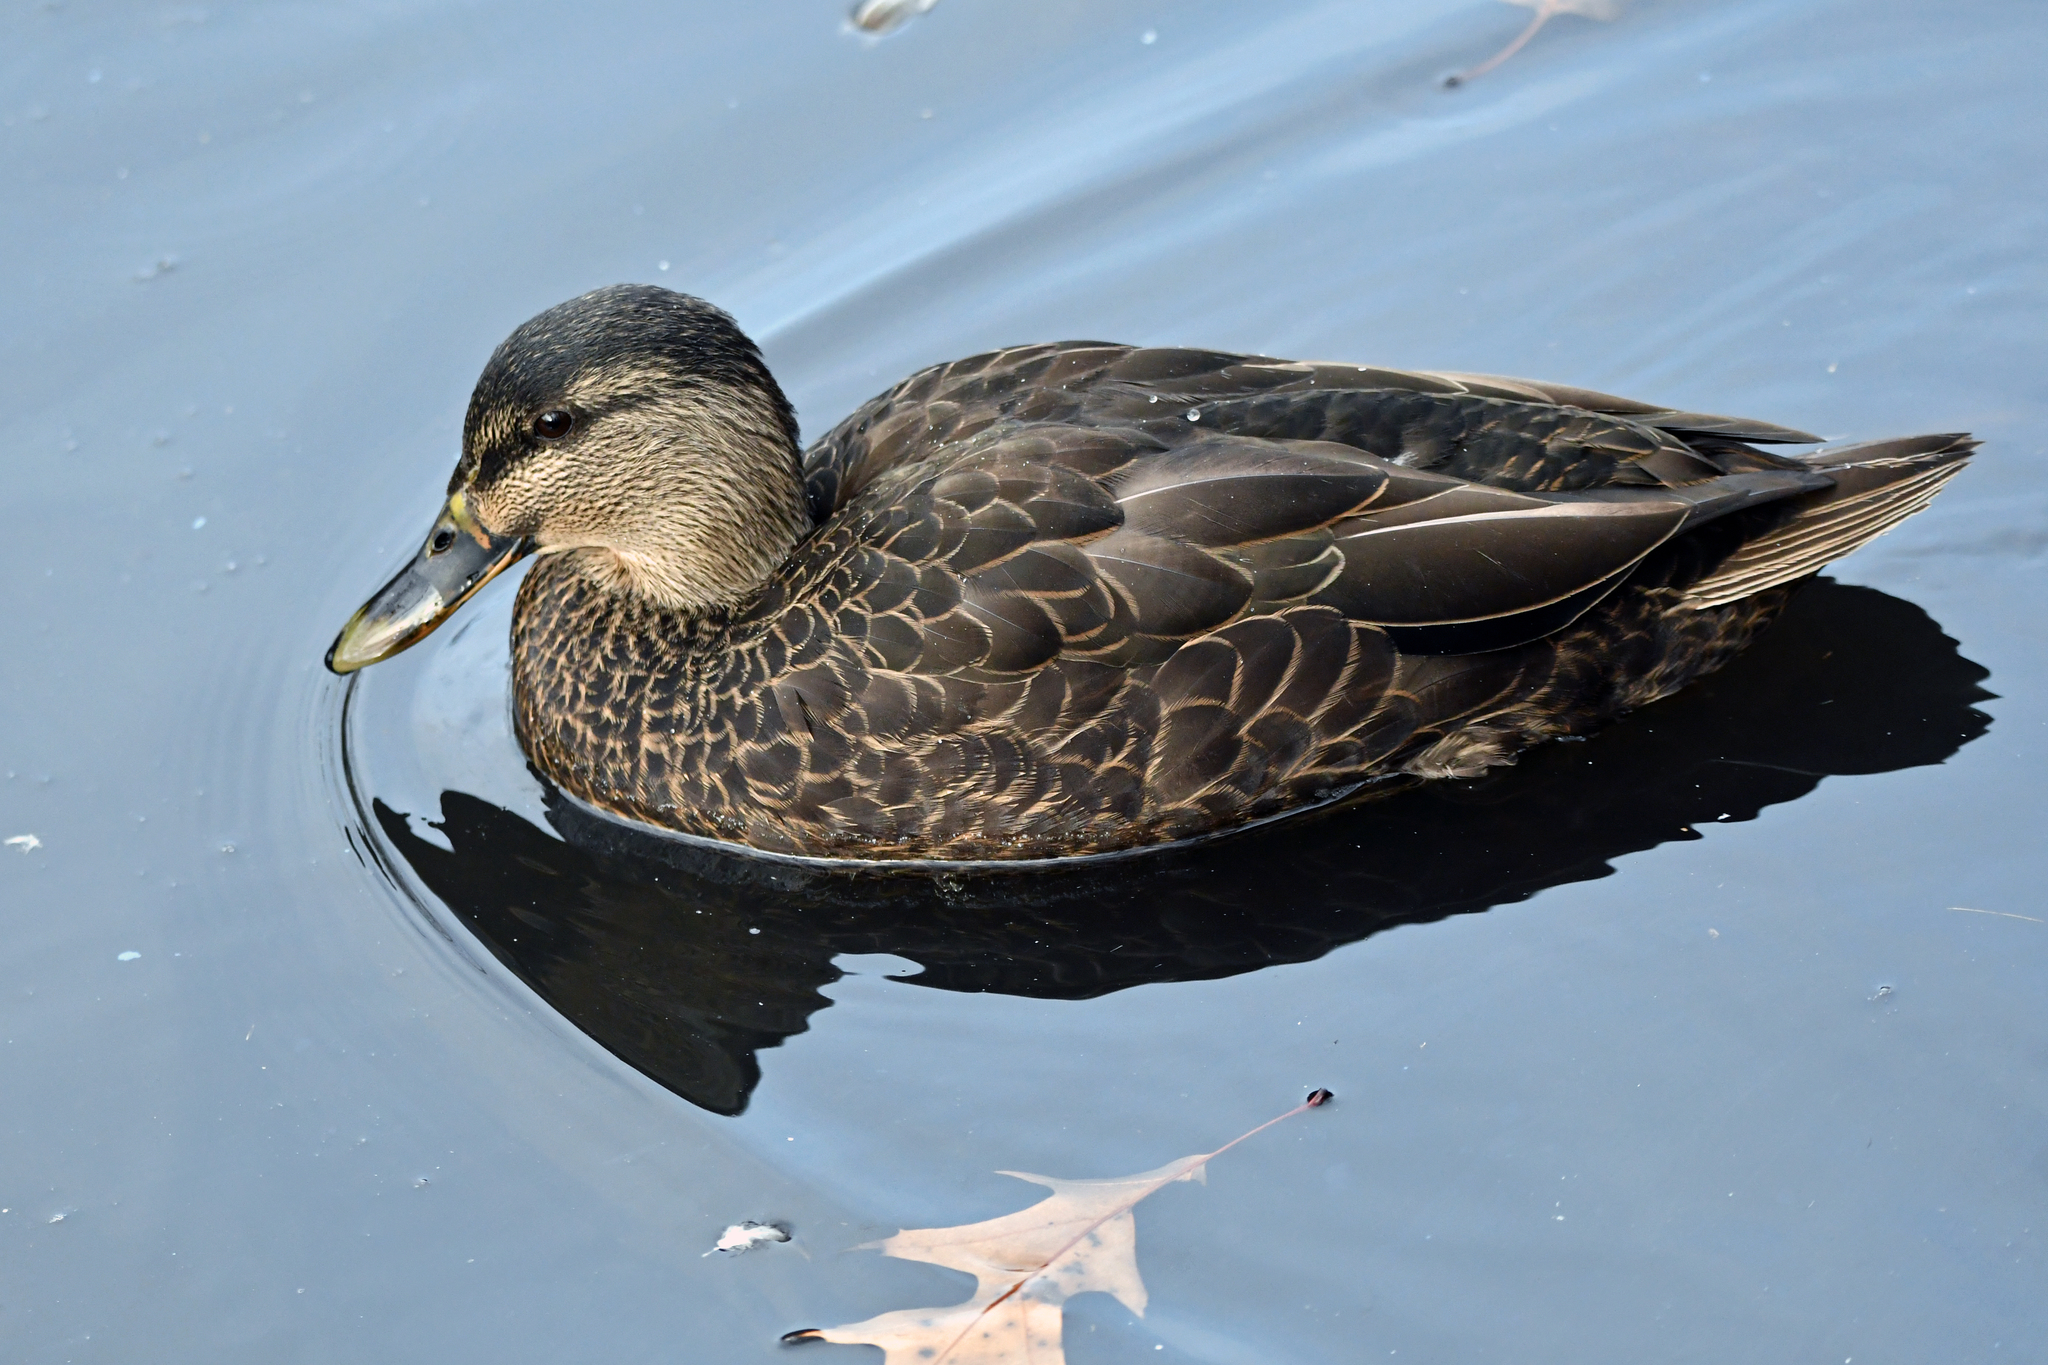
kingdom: Animalia
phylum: Chordata
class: Aves
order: Anseriformes
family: Anatidae
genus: Anas
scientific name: Anas rubripes
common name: American black duck
